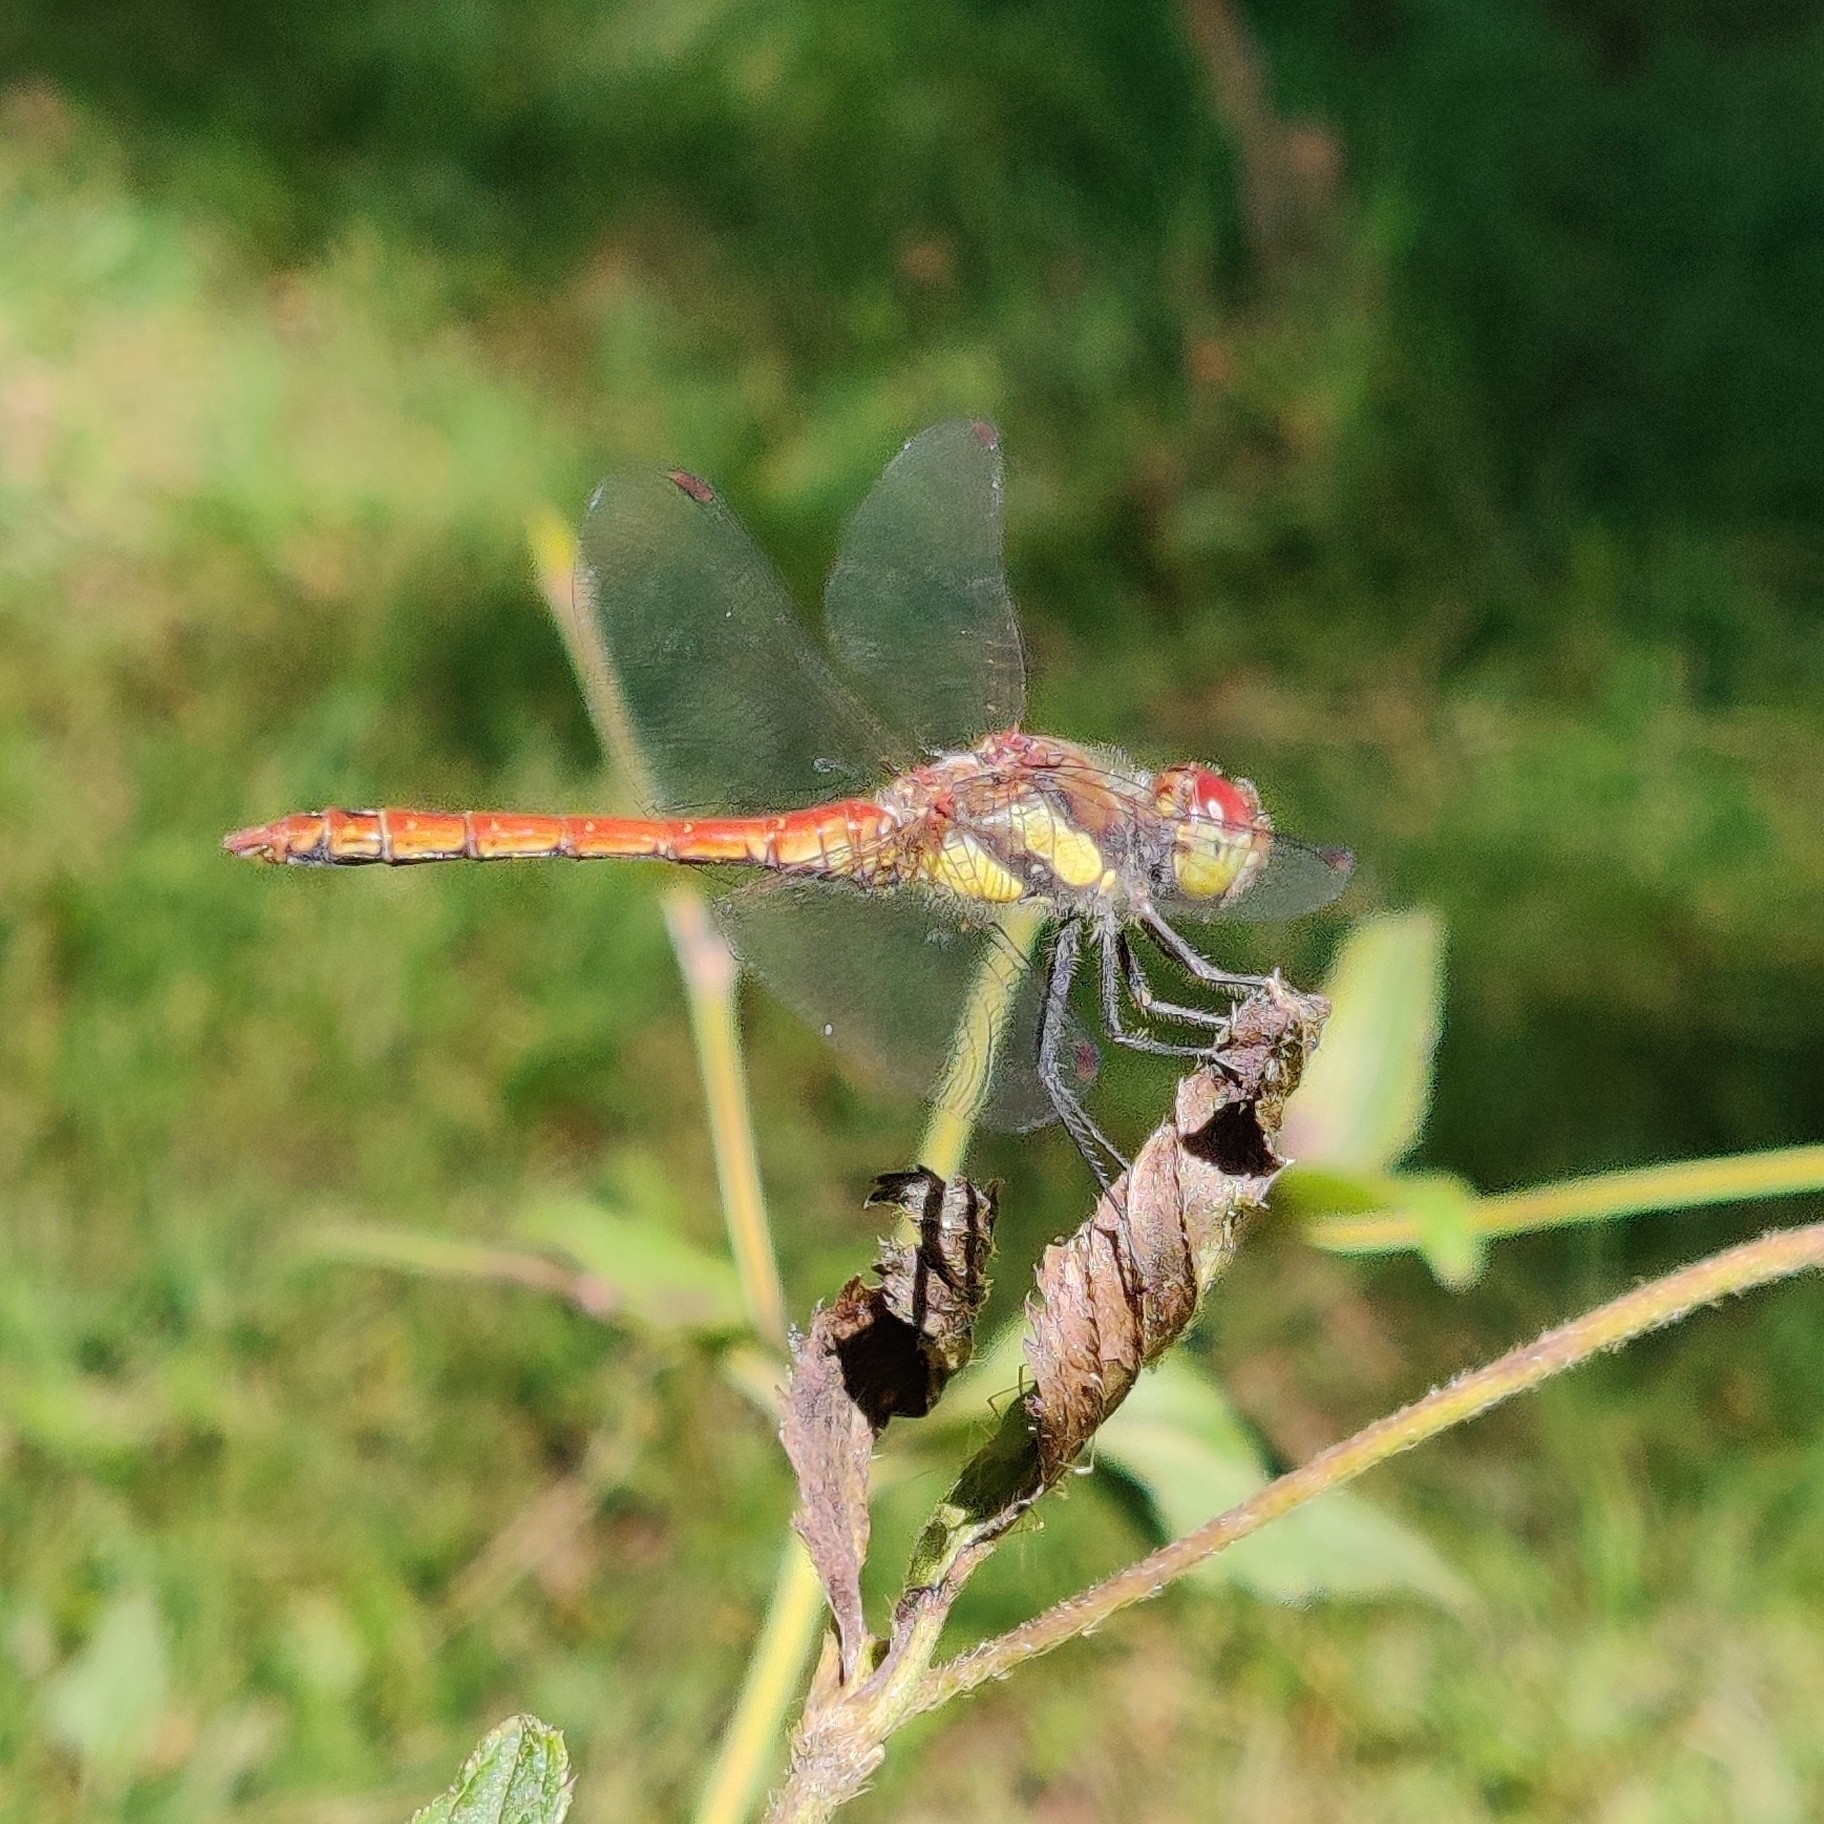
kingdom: Animalia
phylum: Arthropoda
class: Insecta
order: Odonata
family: Libellulidae
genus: Sympetrum
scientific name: Sympetrum striolatum
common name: Common darter
